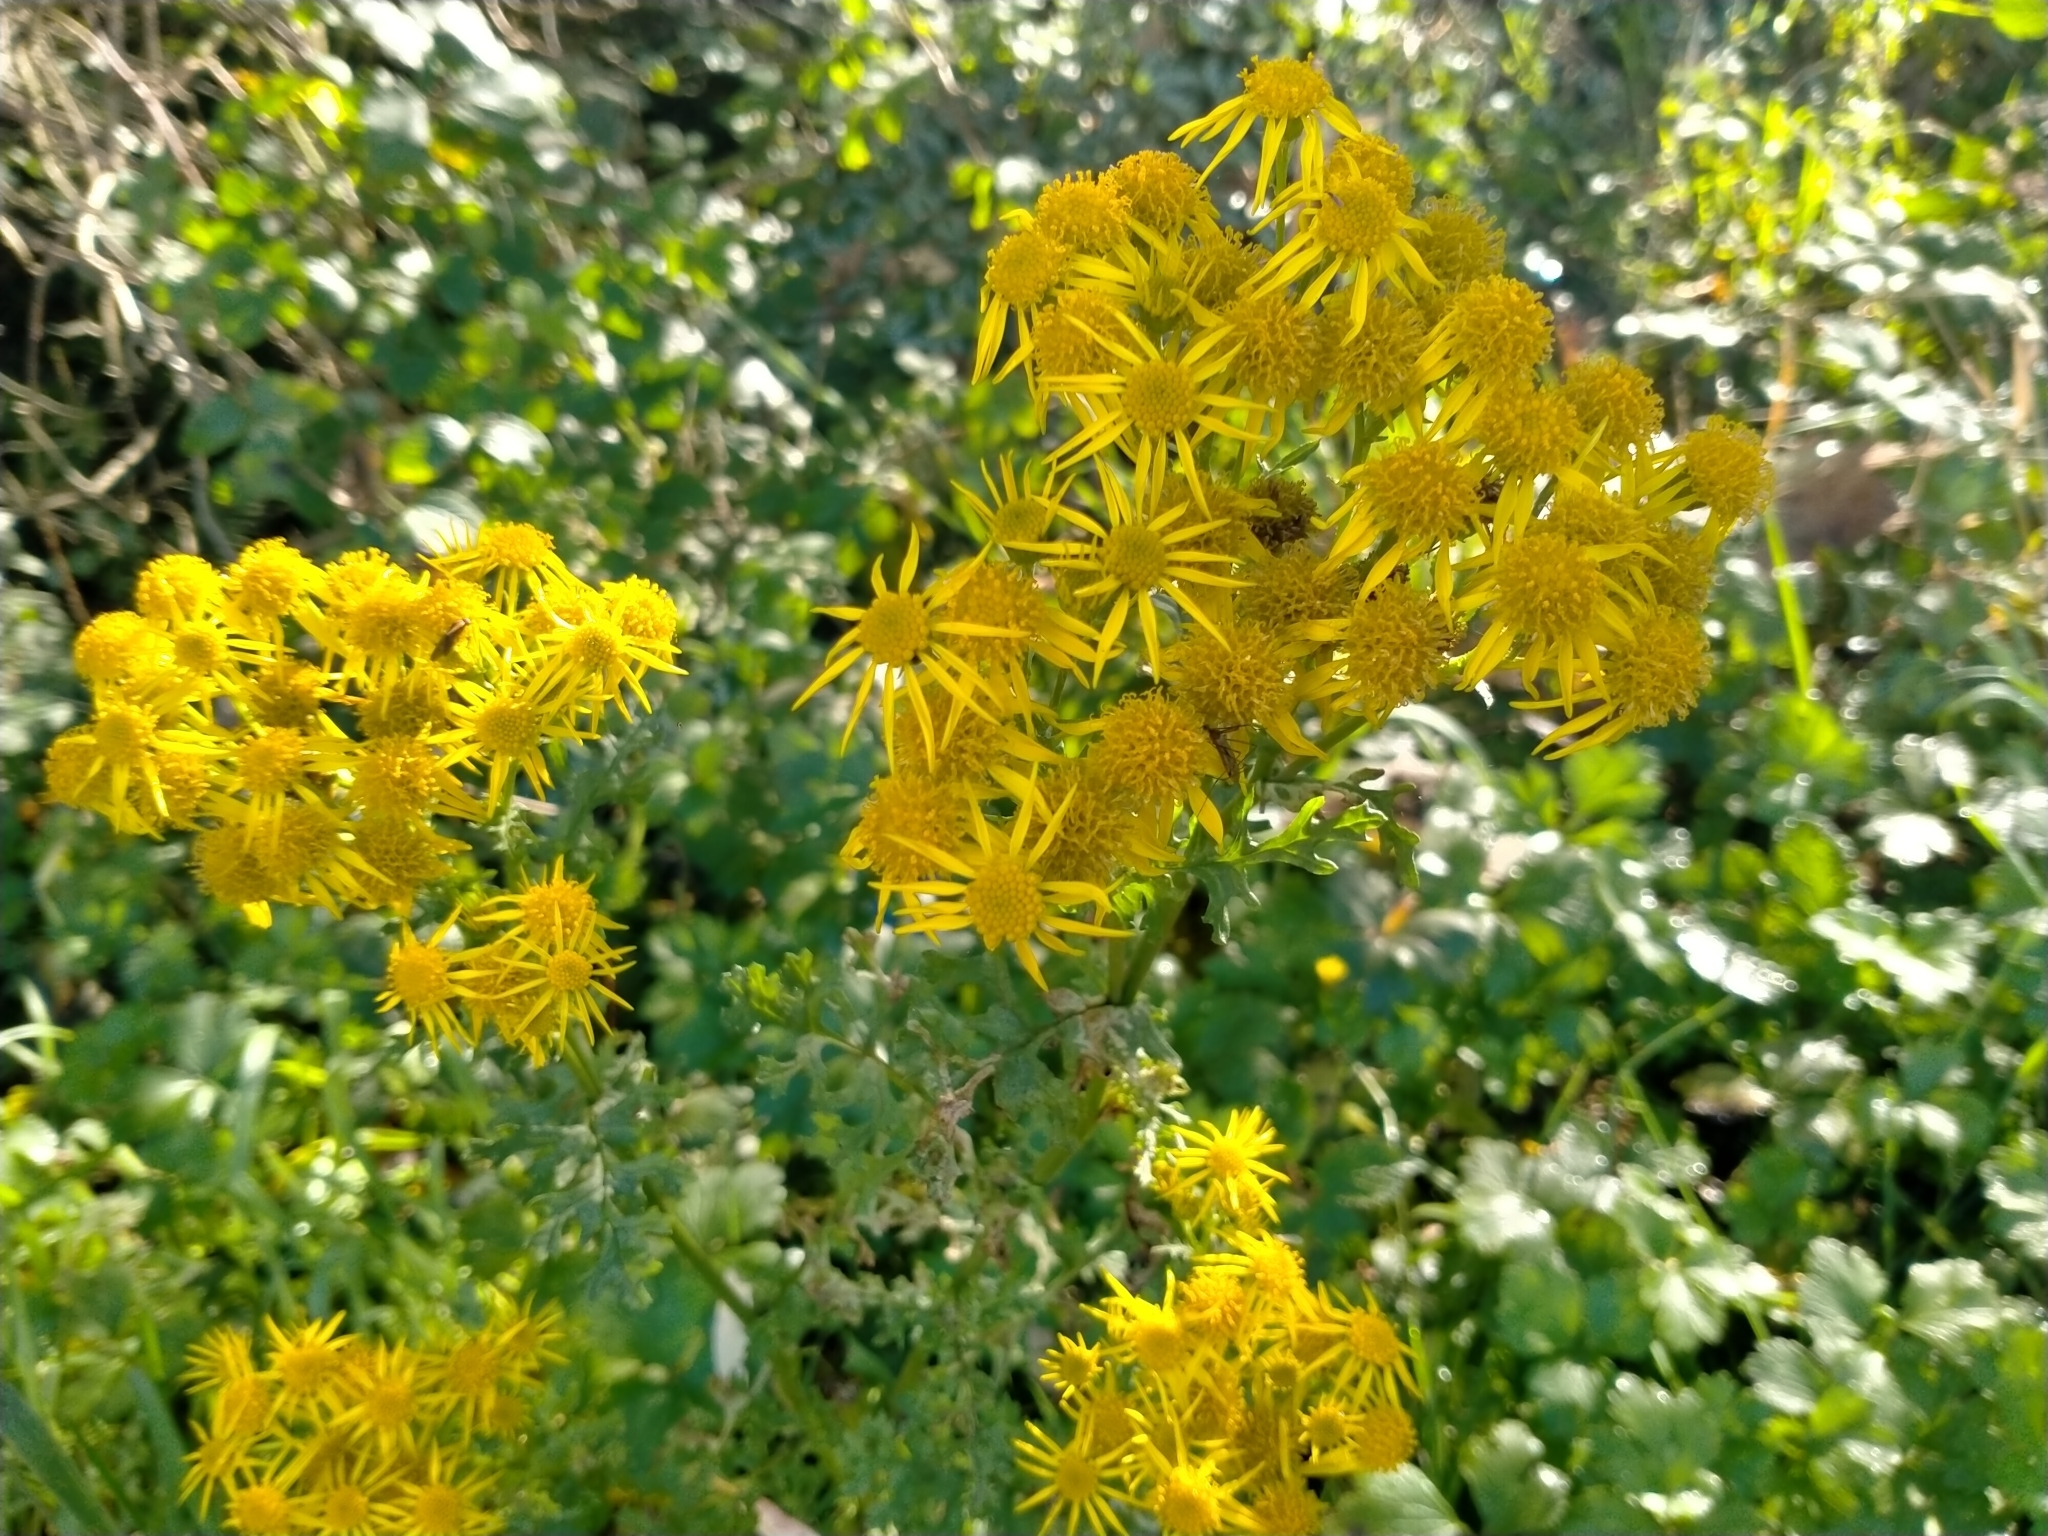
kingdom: Plantae
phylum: Tracheophyta
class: Magnoliopsida
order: Asterales
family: Asteraceae
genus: Jacobaea
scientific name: Jacobaea vulgaris
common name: Stinking willie
